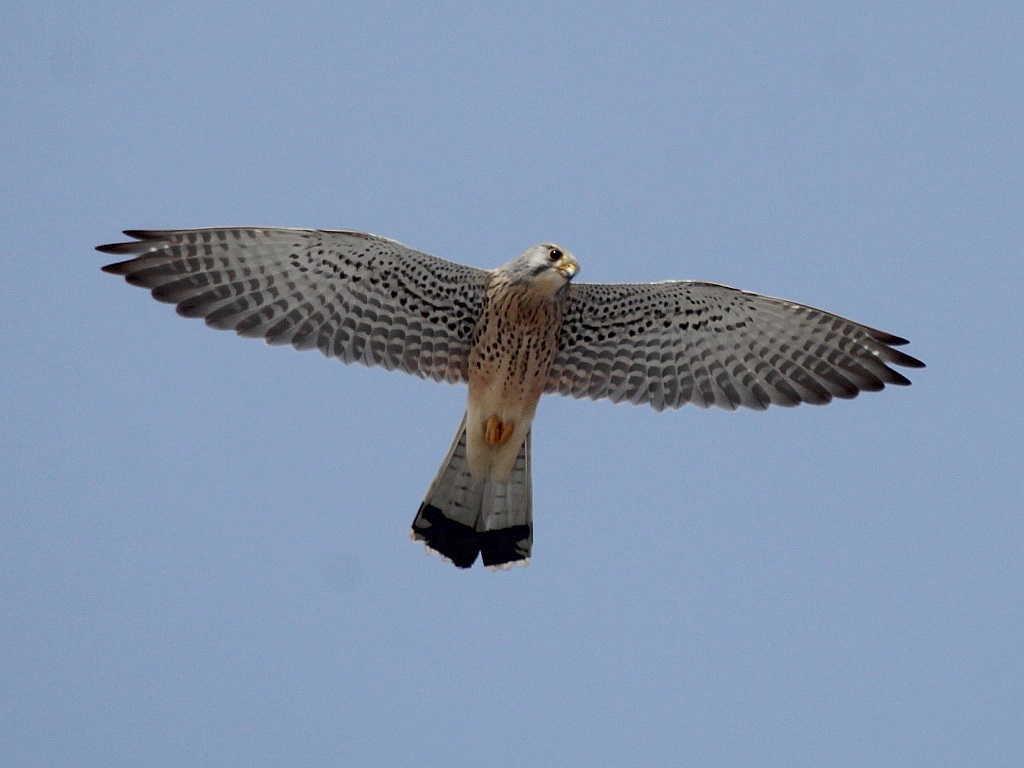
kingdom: Animalia
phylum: Chordata
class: Aves
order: Falconiformes
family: Falconidae
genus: Falco
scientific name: Falco tinnunculus
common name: Common kestrel
